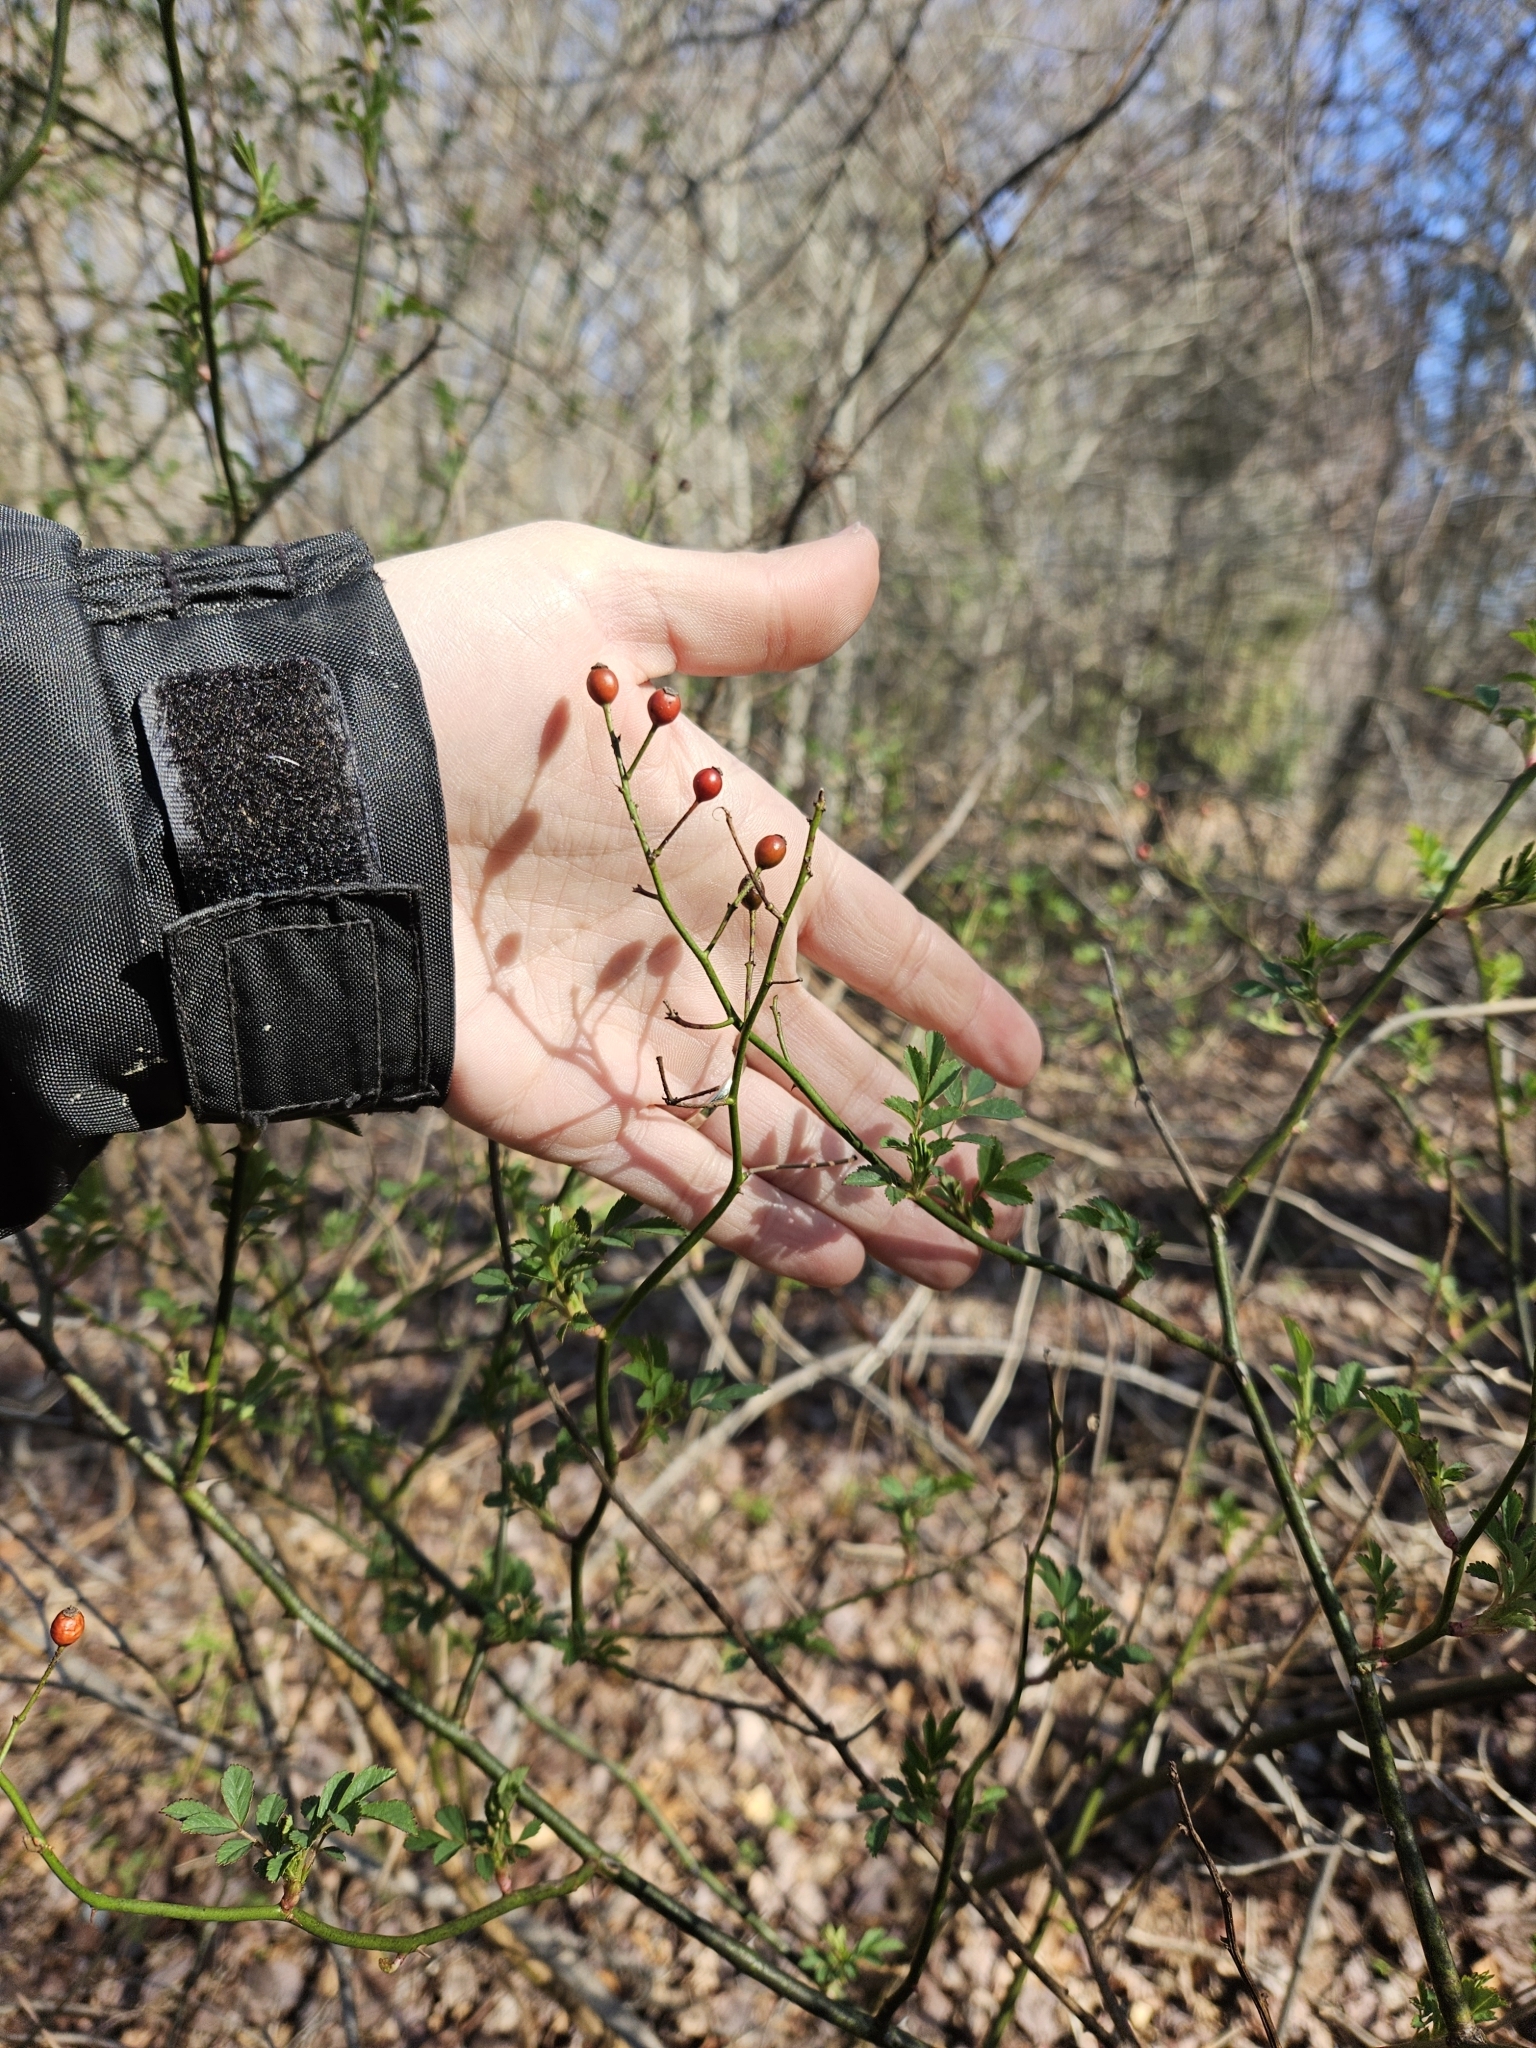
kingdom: Plantae
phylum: Tracheophyta
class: Magnoliopsida
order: Rosales
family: Rosaceae
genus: Rosa
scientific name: Rosa multiflora
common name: Multiflora rose
